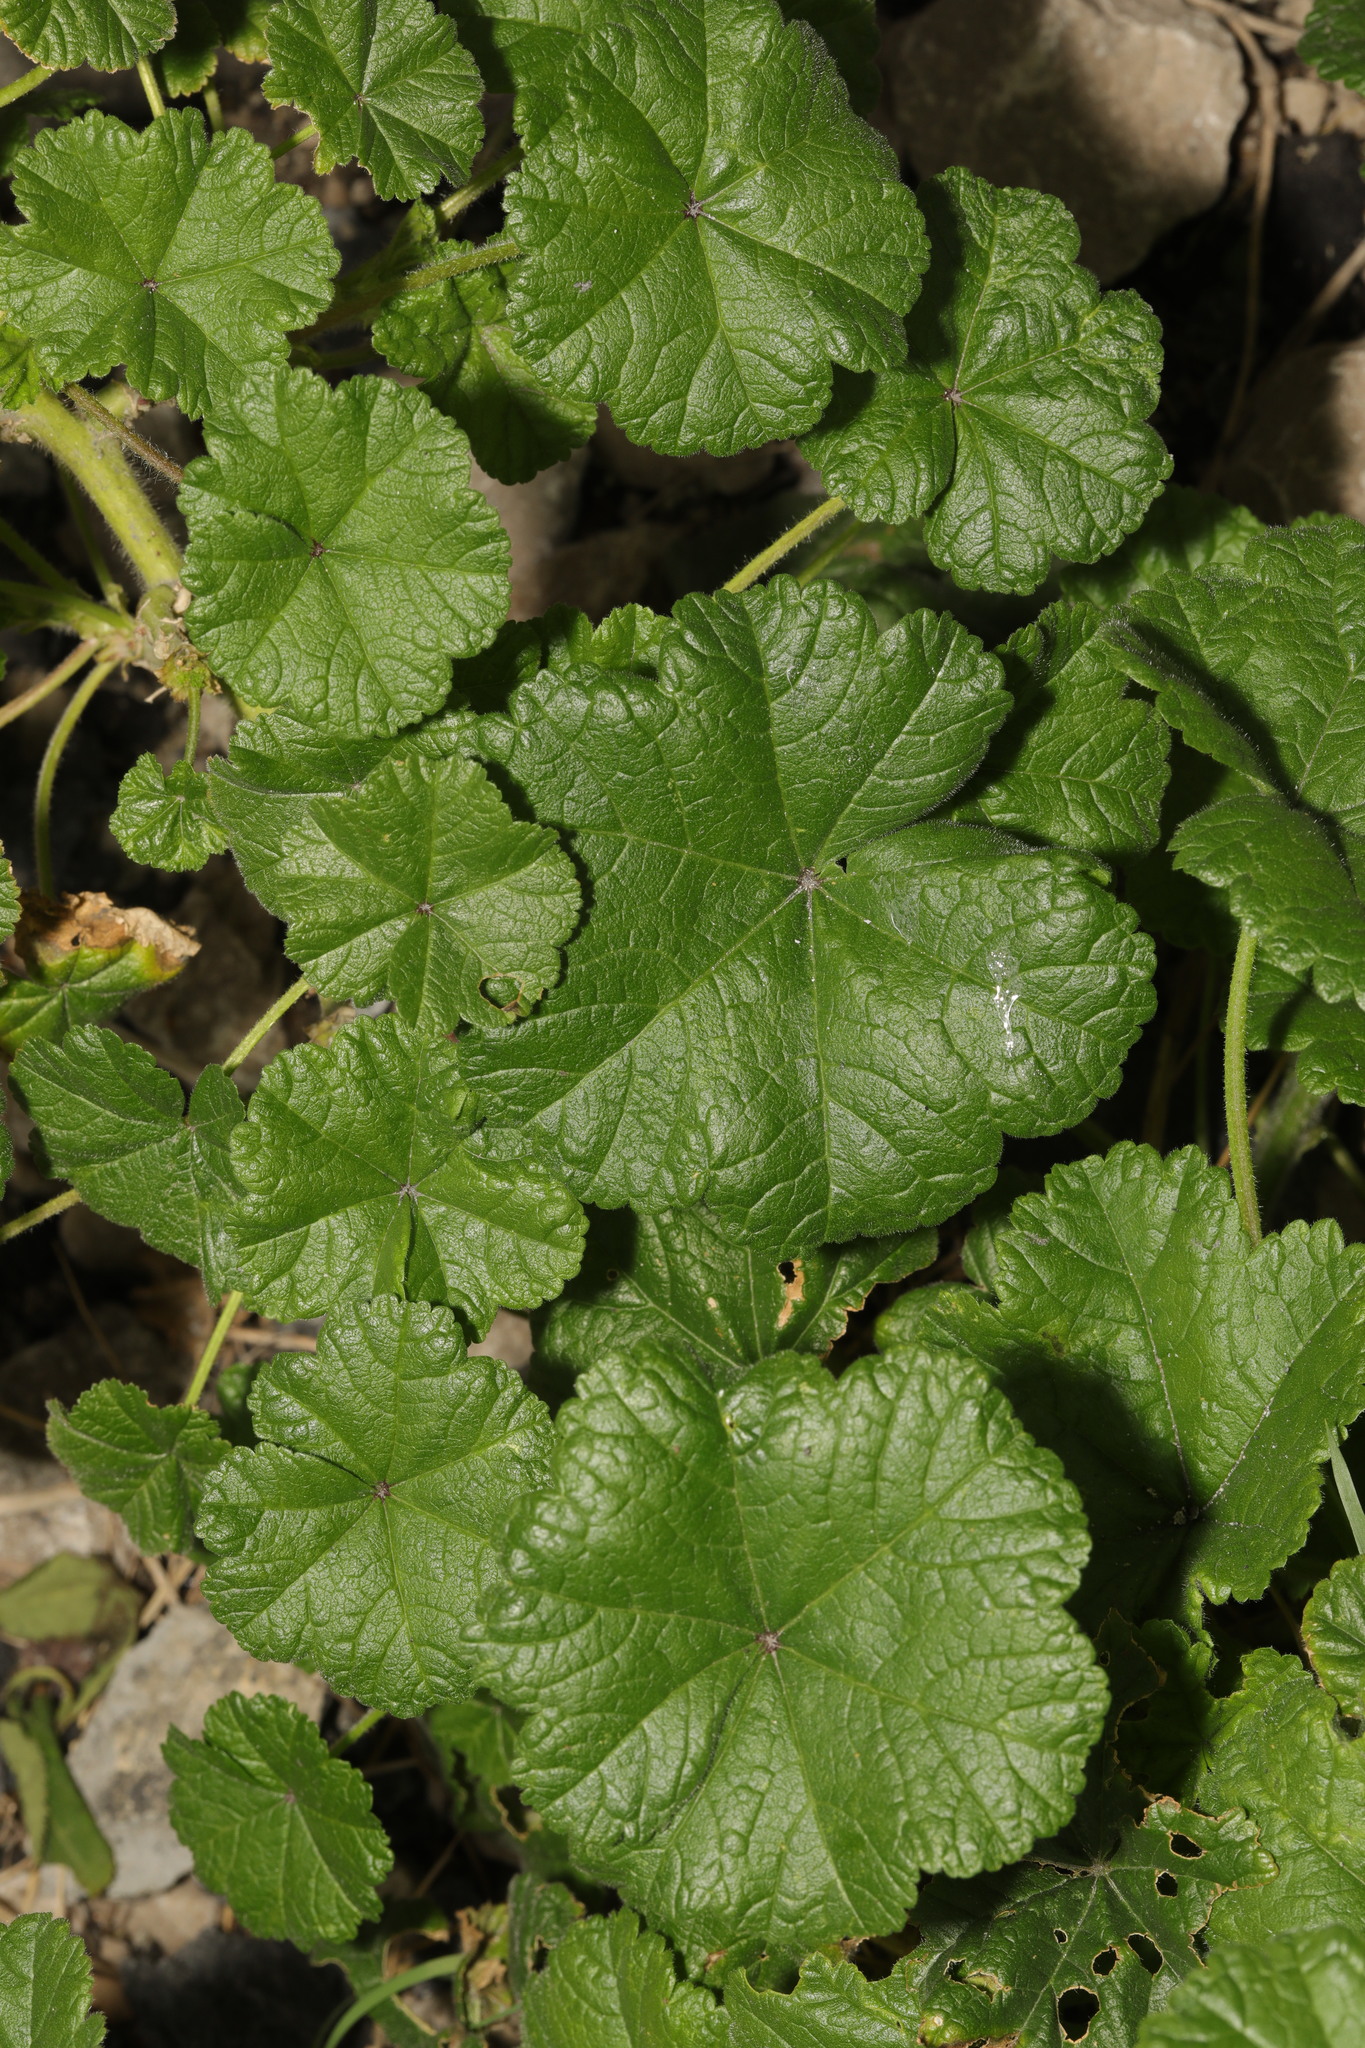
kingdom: Plantae
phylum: Tracheophyta
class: Magnoliopsida
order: Malvales
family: Malvaceae
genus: Malva
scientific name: Malva sylvestris
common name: Common mallow
